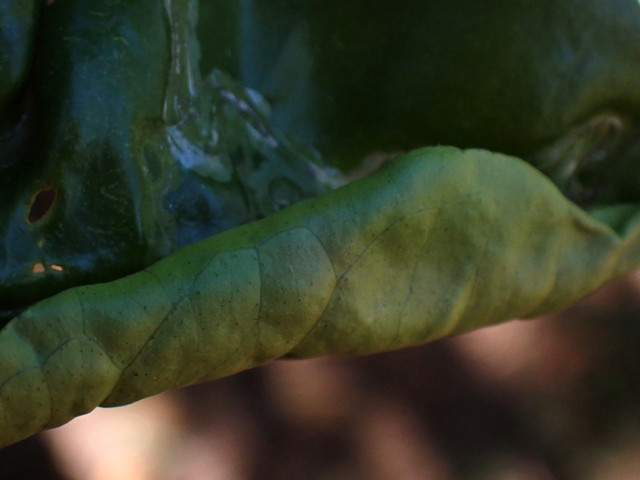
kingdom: Animalia
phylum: Arthropoda
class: Insecta
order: Lepidoptera
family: Gracillariidae
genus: Phyllocnistis
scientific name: Phyllocnistis citrella
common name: Citrus leafminer
